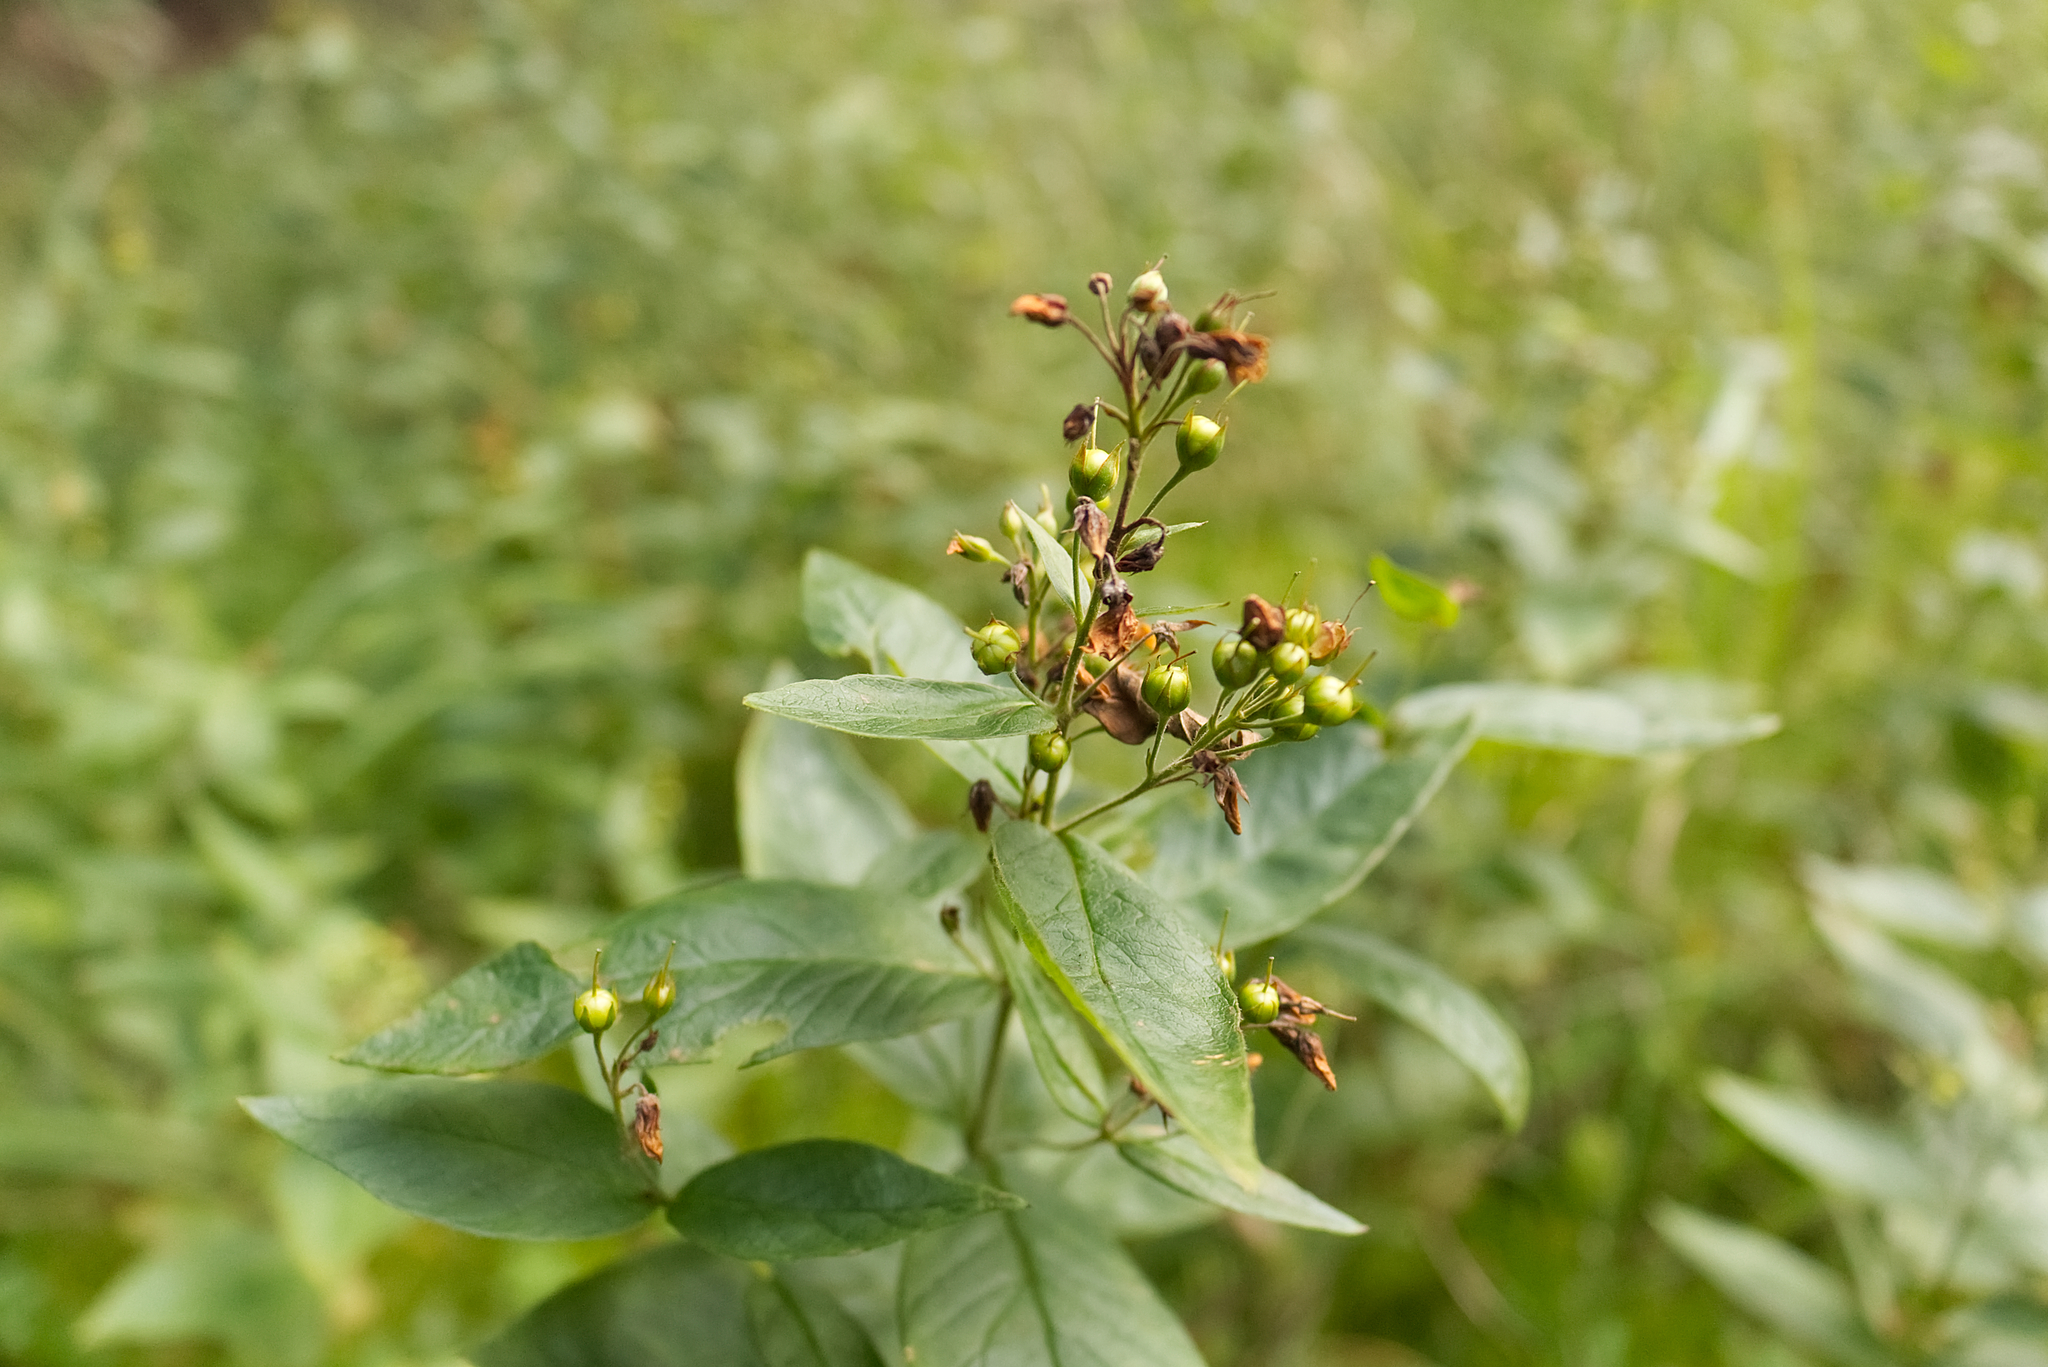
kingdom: Plantae
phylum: Tracheophyta
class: Magnoliopsida
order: Ericales
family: Primulaceae
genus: Lysimachia
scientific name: Lysimachia vulgaris
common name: Yellow loosestrife
